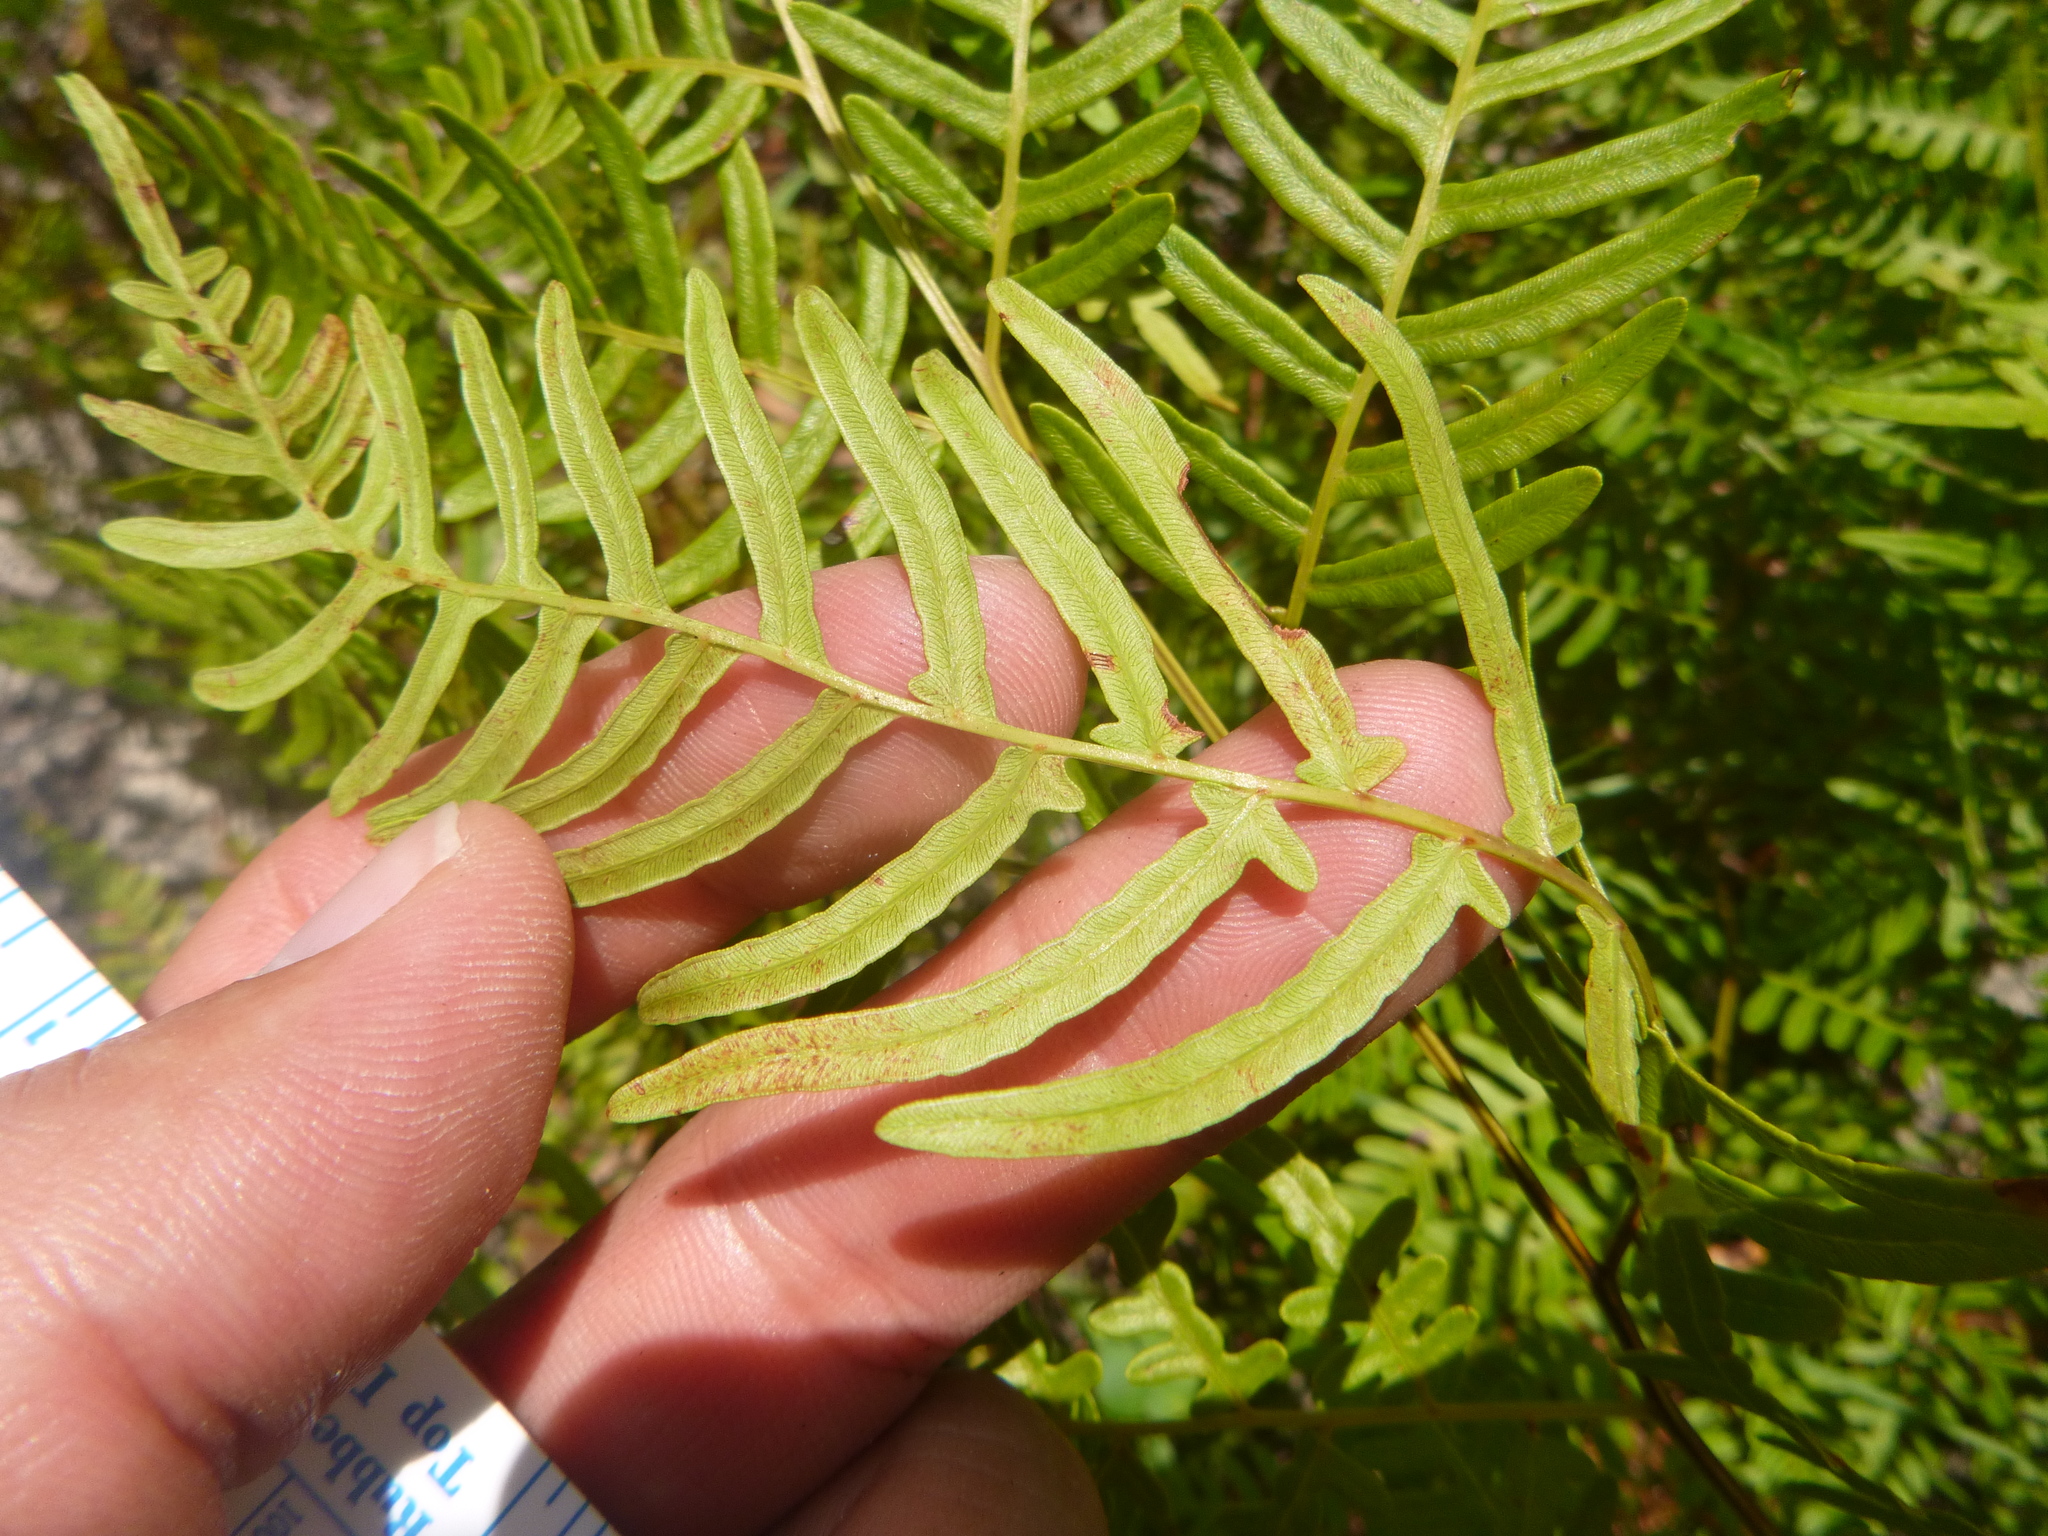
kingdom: Plantae
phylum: Tracheophyta
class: Polypodiopsida
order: Polypodiales
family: Dennstaedtiaceae
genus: Pteridium
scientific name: Pteridium
